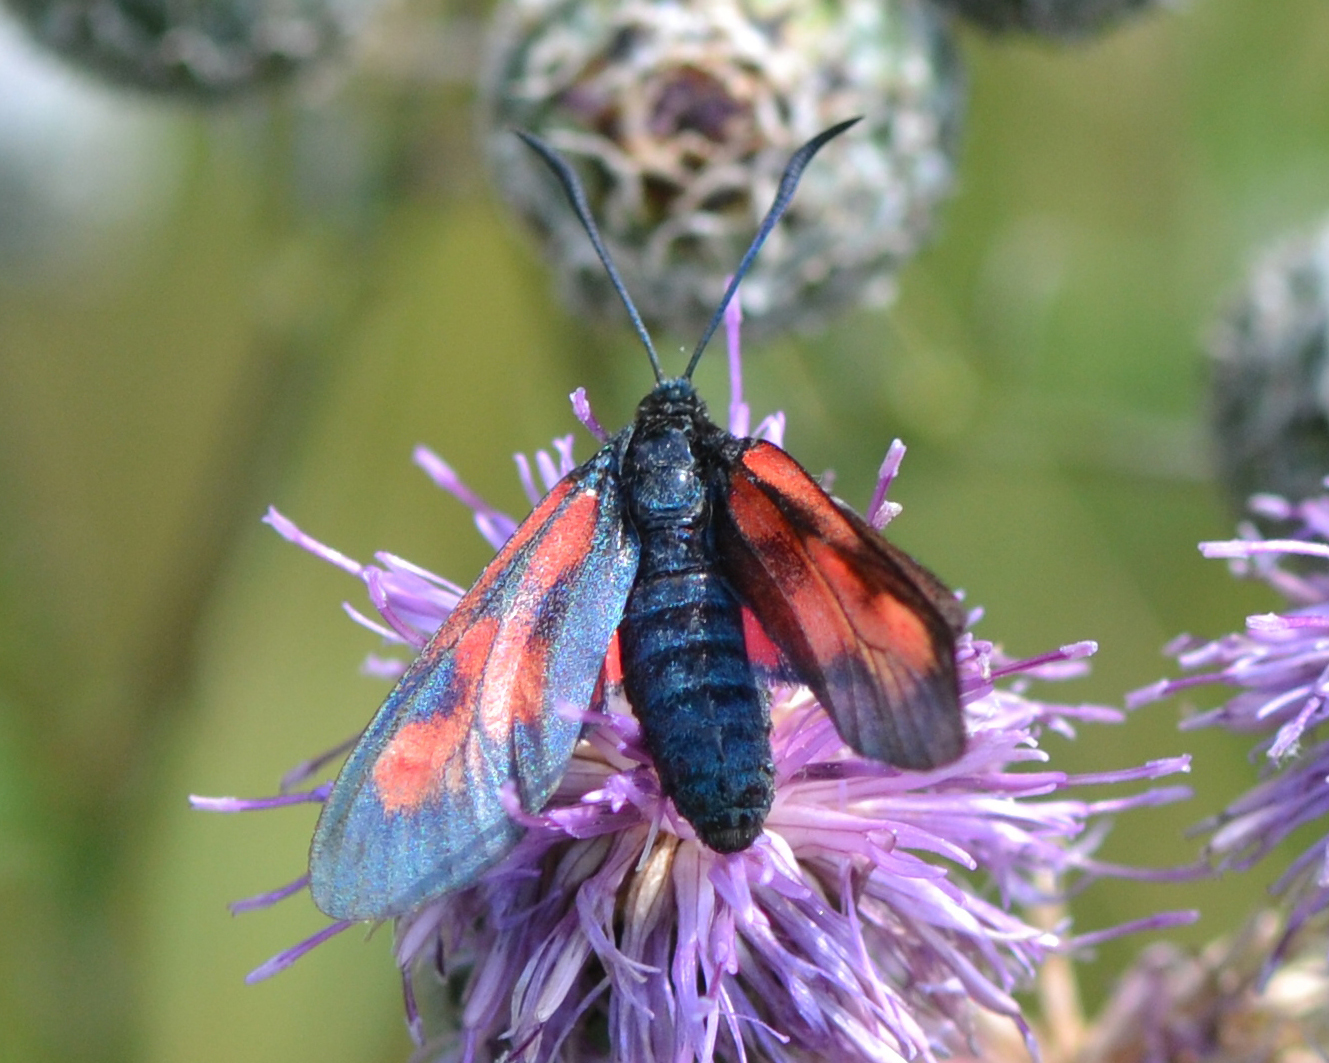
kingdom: Animalia
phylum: Arthropoda
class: Insecta
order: Lepidoptera
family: Zygaenidae
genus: Zygaena
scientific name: Zygaena lonicerae
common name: Narrow-bordered five-spot burnet
